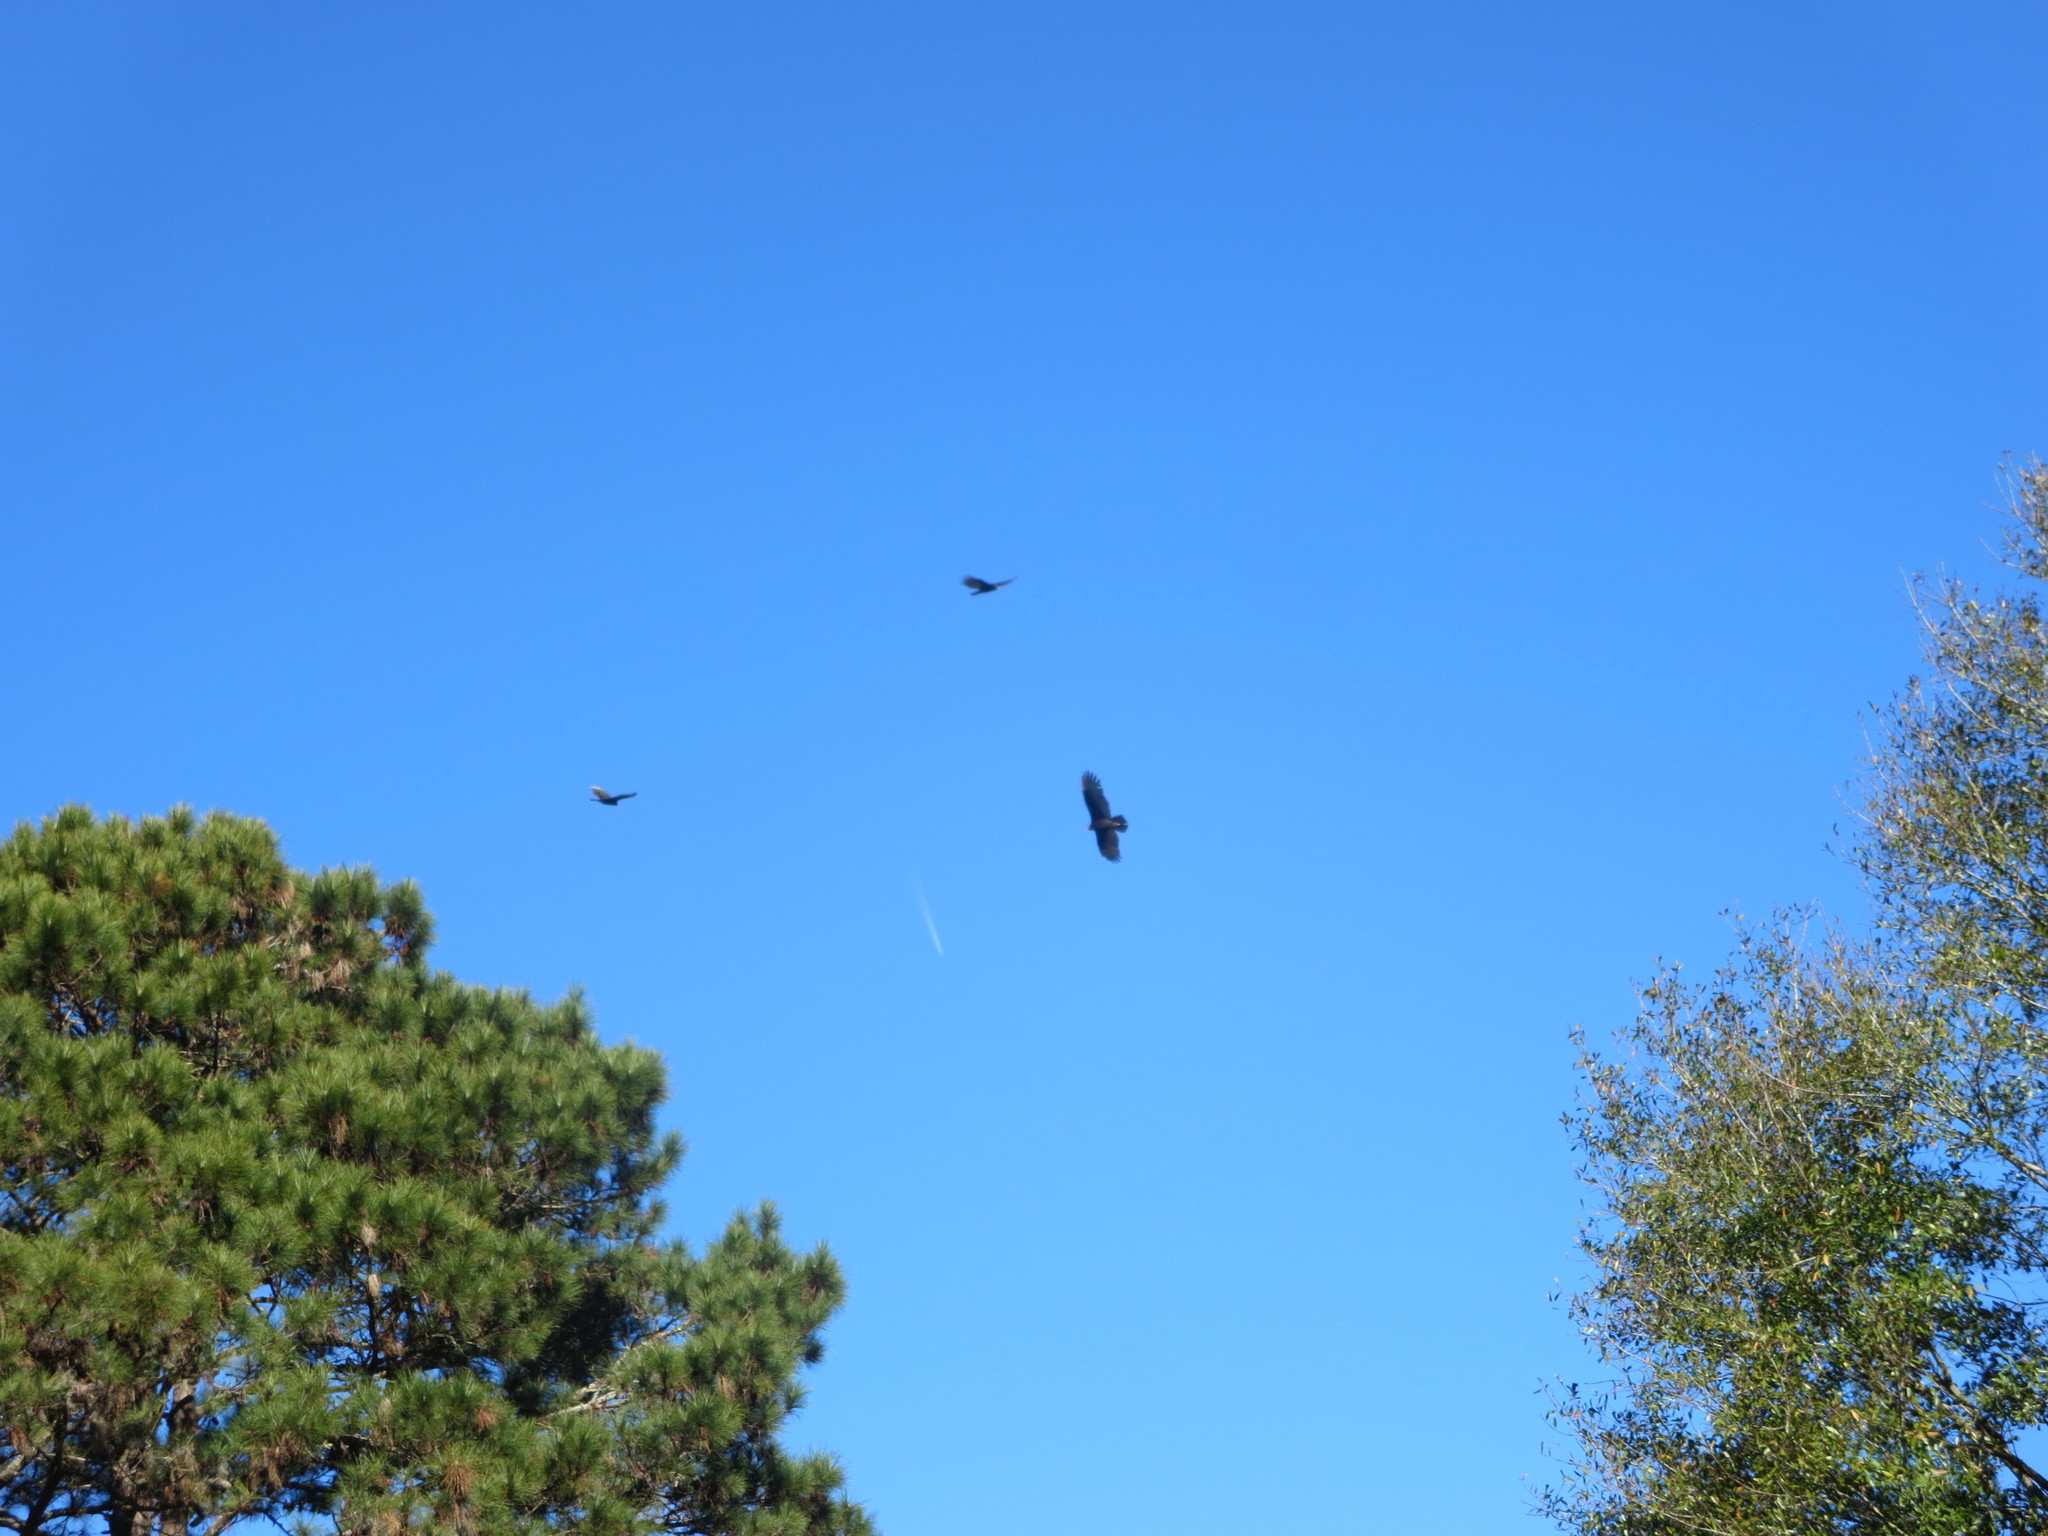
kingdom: Animalia
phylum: Chordata
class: Aves
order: Accipitriformes
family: Cathartidae
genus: Cathartes
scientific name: Cathartes aura
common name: Turkey vulture
